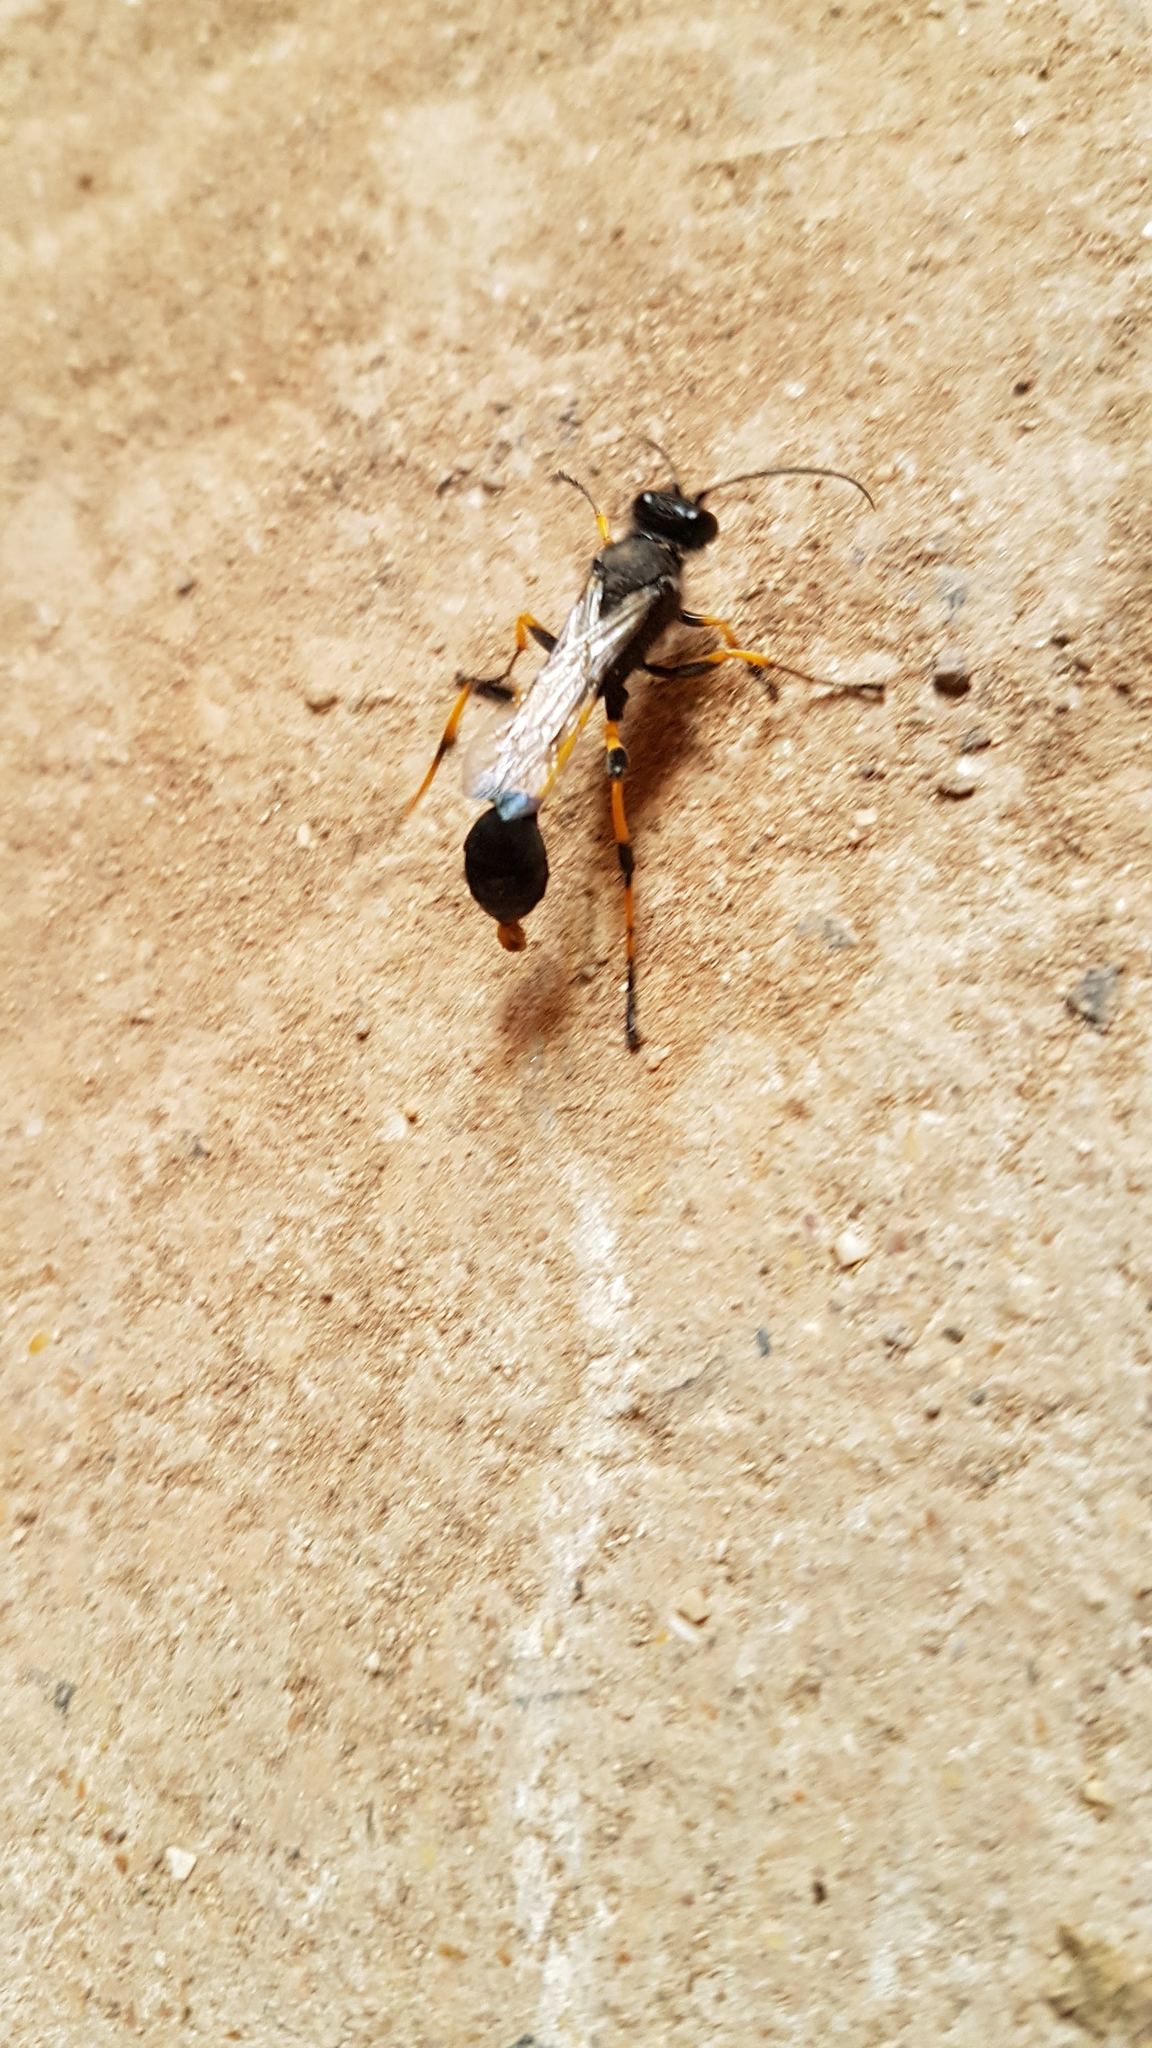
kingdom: Animalia
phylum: Arthropoda
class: Insecta
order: Hymenoptera
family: Sphecidae
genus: Sceliphron
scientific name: Sceliphron spirifex
